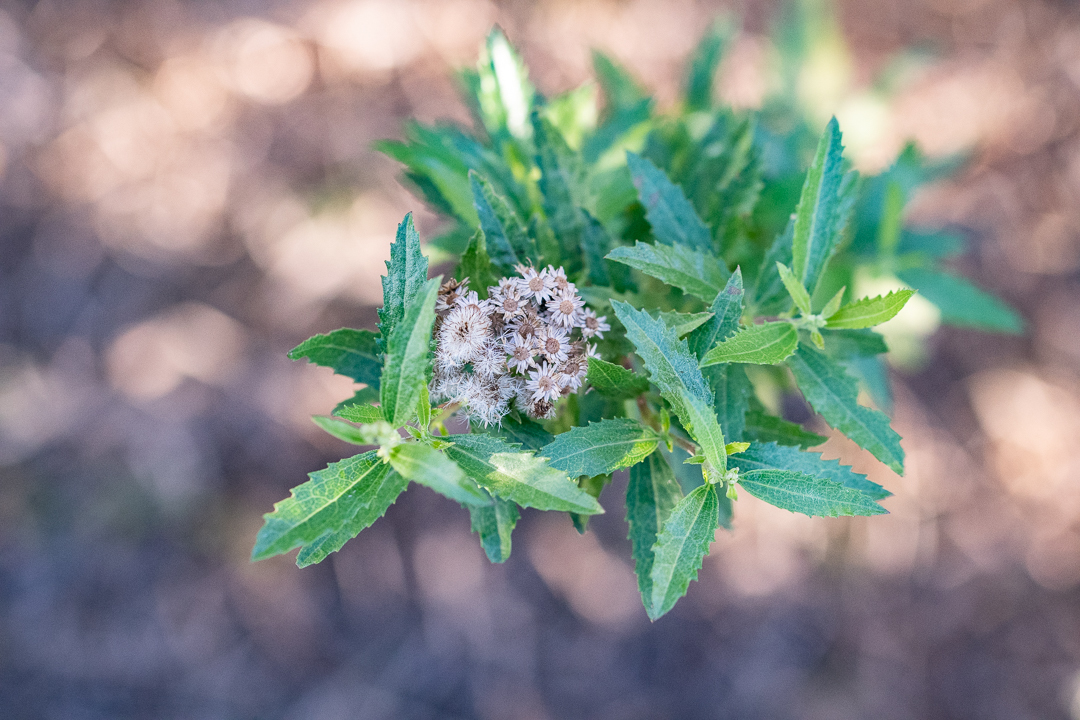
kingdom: Plantae
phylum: Tracheophyta
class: Magnoliopsida
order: Asterales
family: Asteraceae
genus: Nidorella
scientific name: Nidorella ivifolia
